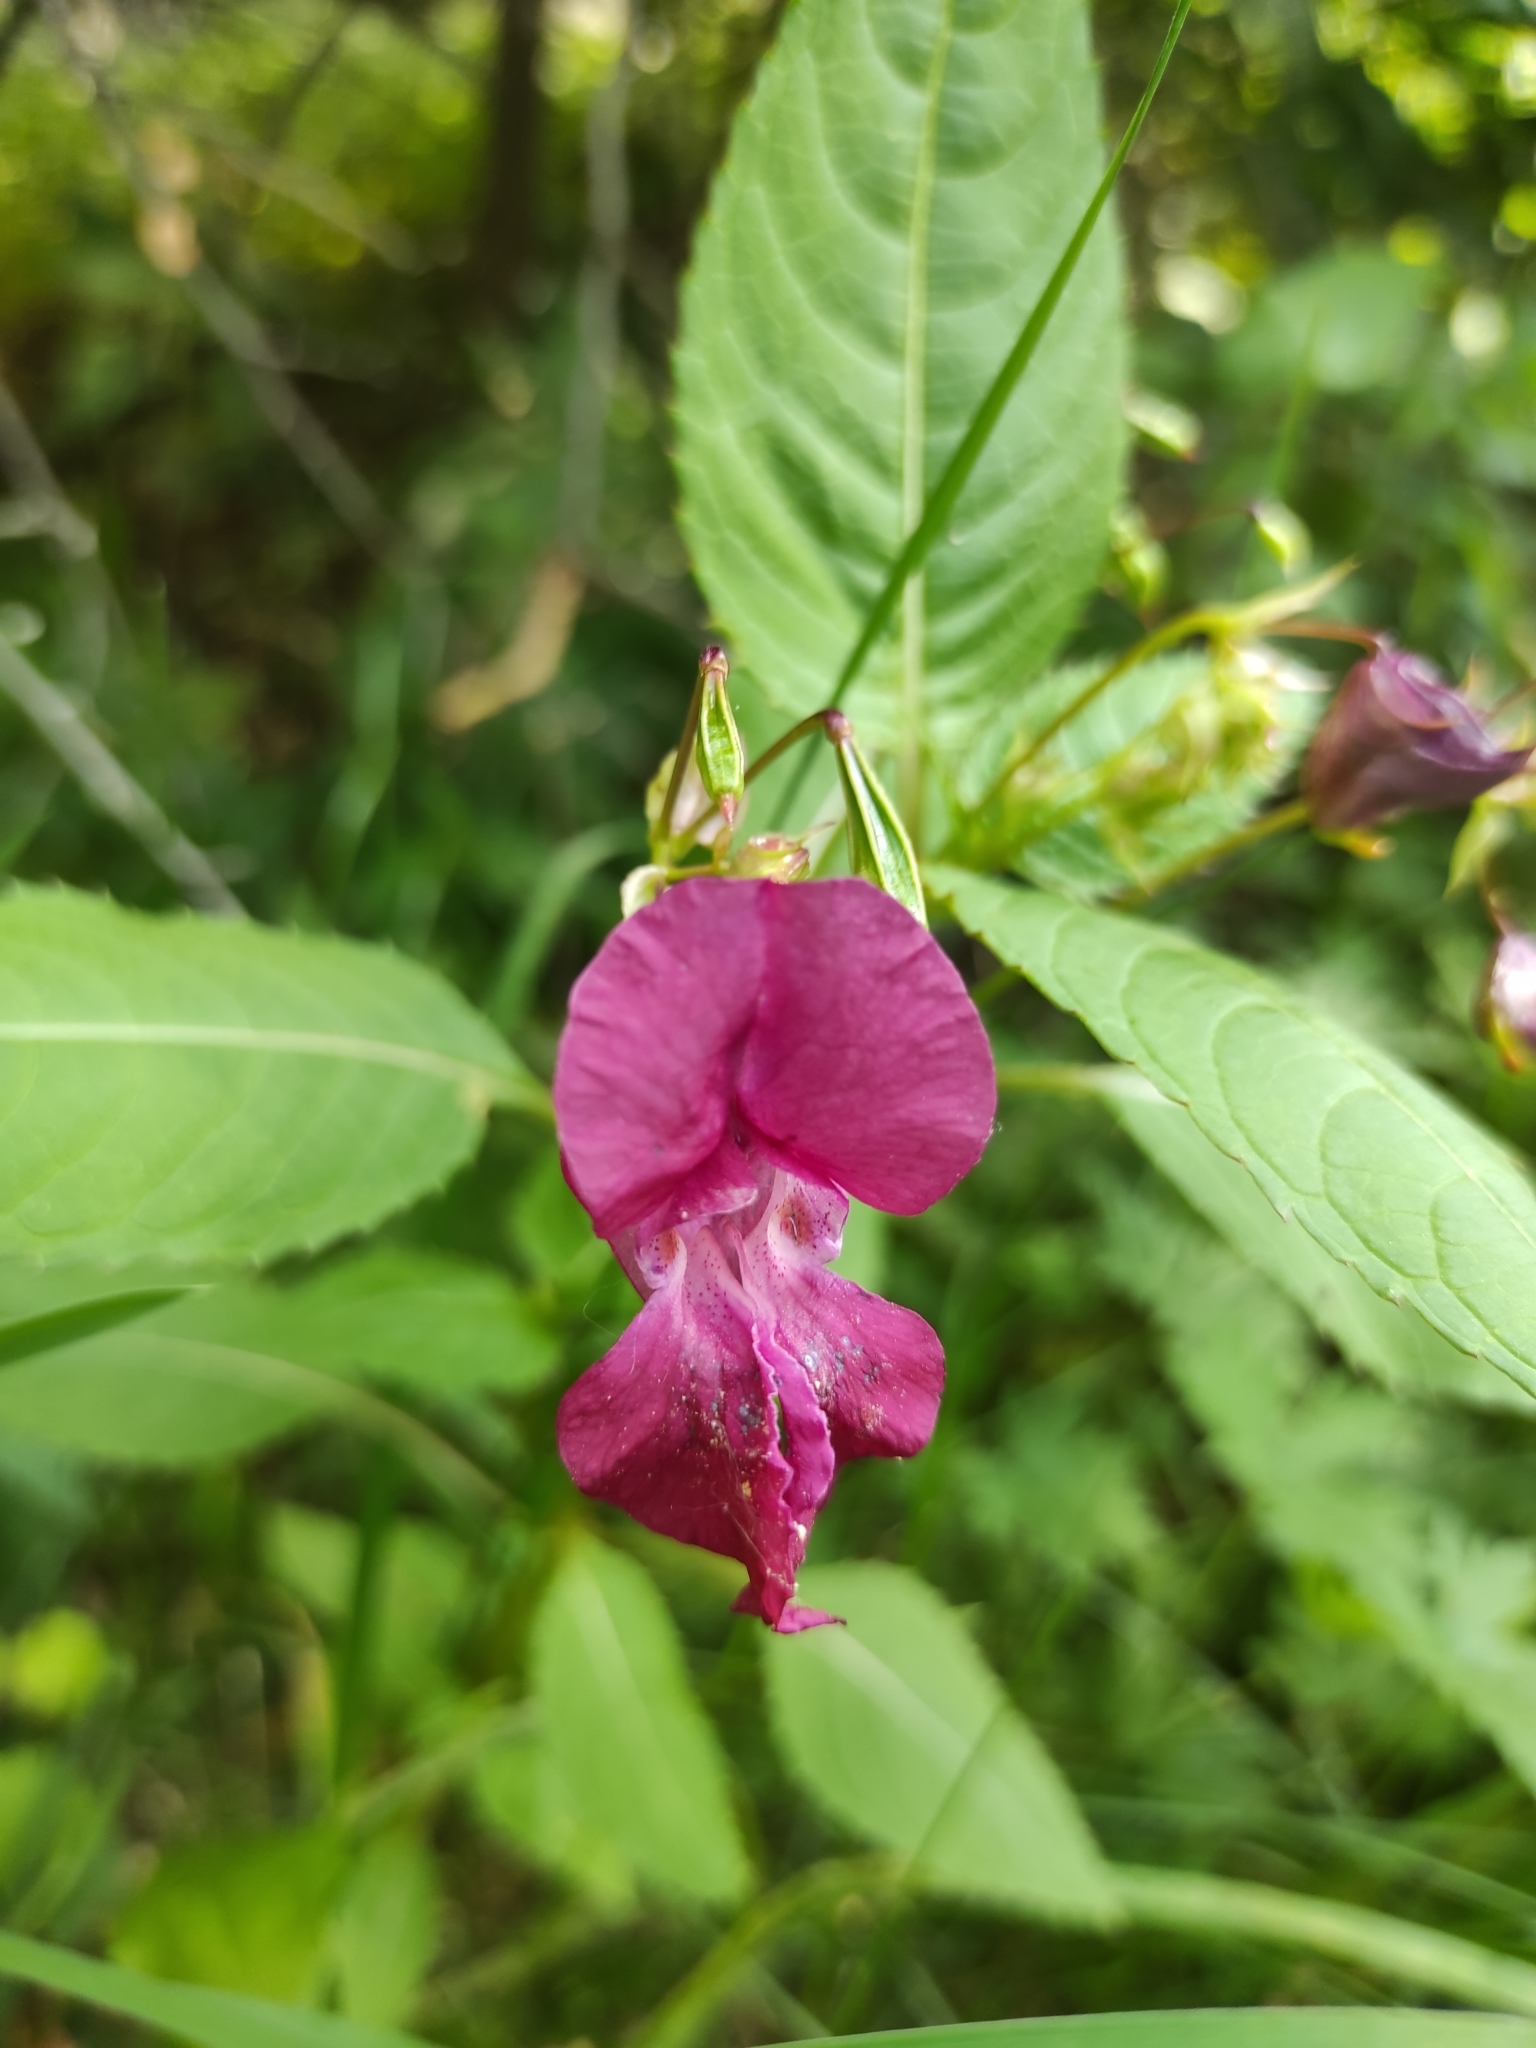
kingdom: Plantae
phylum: Tracheophyta
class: Magnoliopsida
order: Ericales
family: Balsaminaceae
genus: Impatiens
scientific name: Impatiens glandulifera
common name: Himalayan balsam
